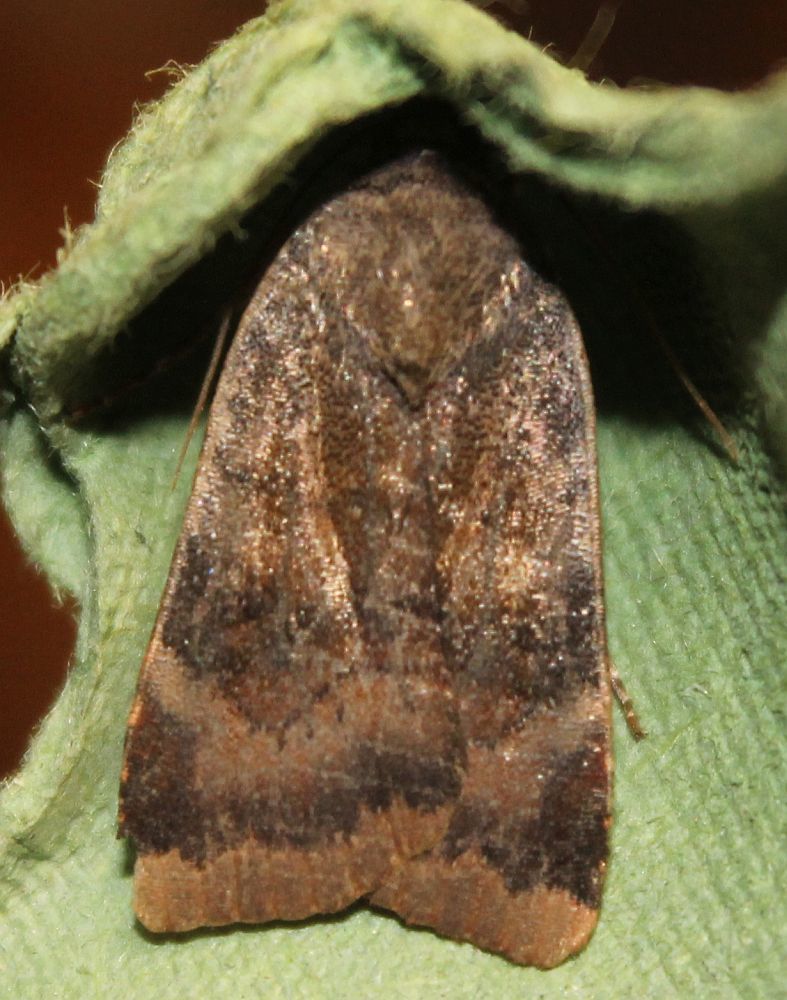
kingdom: Animalia
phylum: Arthropoda
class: Insecta
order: Lepidoptera
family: Noctuidae
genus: Noctua
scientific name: Noctua janthe
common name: Lesser broad-bordered yellow underwing
